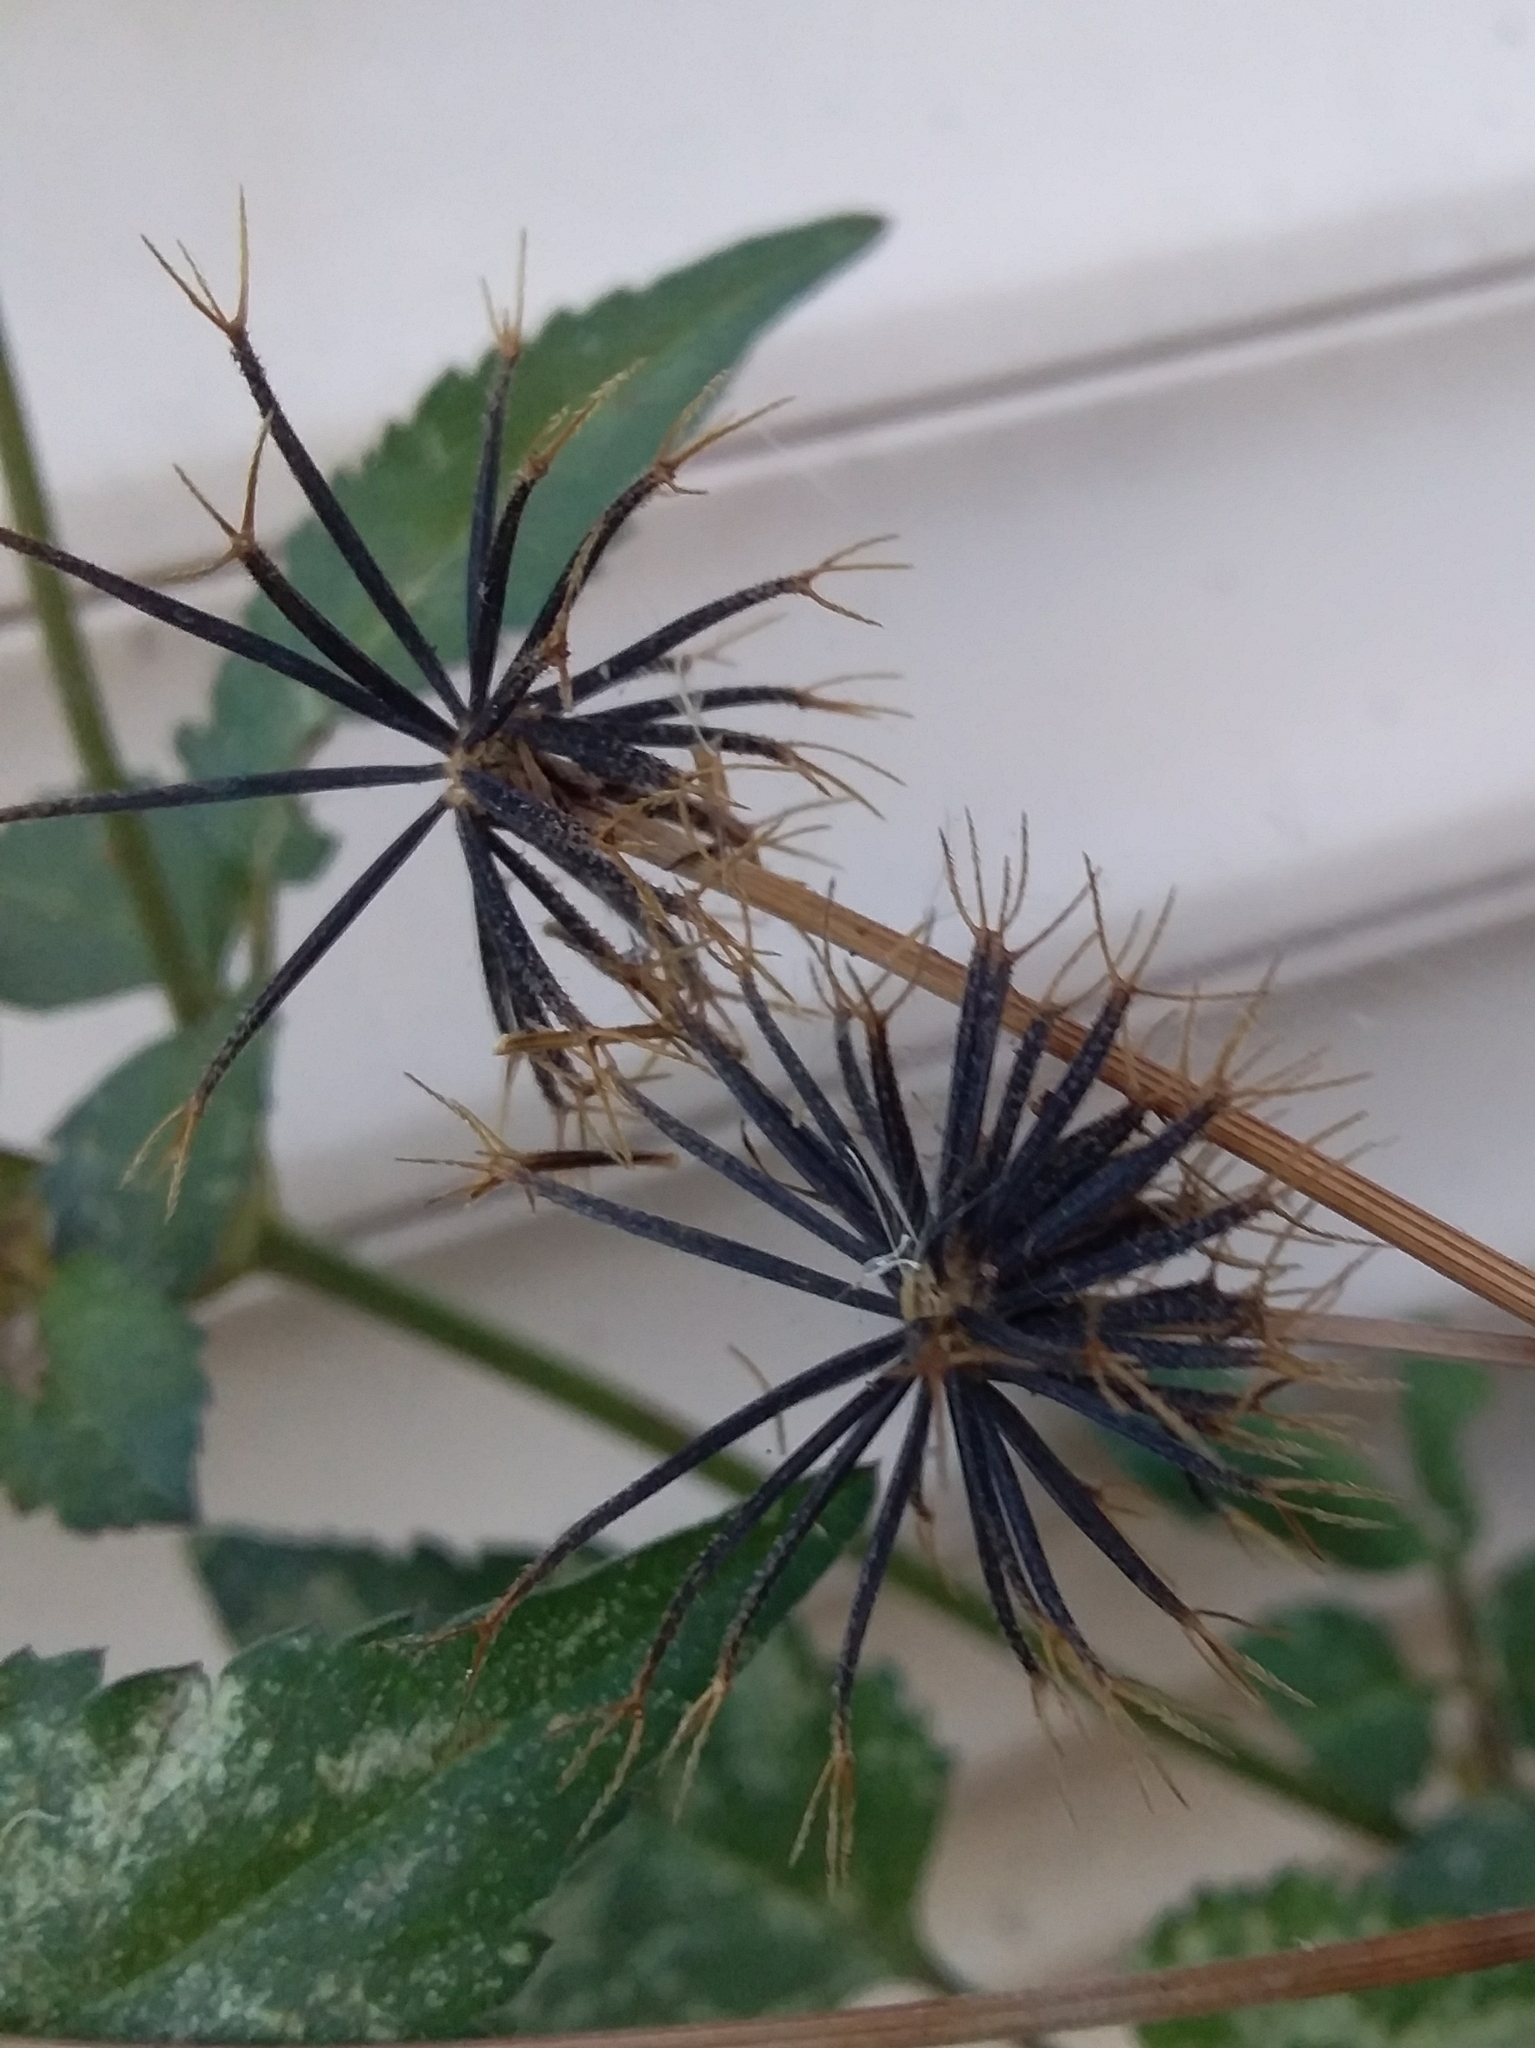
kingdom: Plantae
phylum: Tracheophyta
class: Magnoliopsida
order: Asterales
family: Asteraceae
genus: Bidens
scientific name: Bidens pilosa
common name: Black-jack
